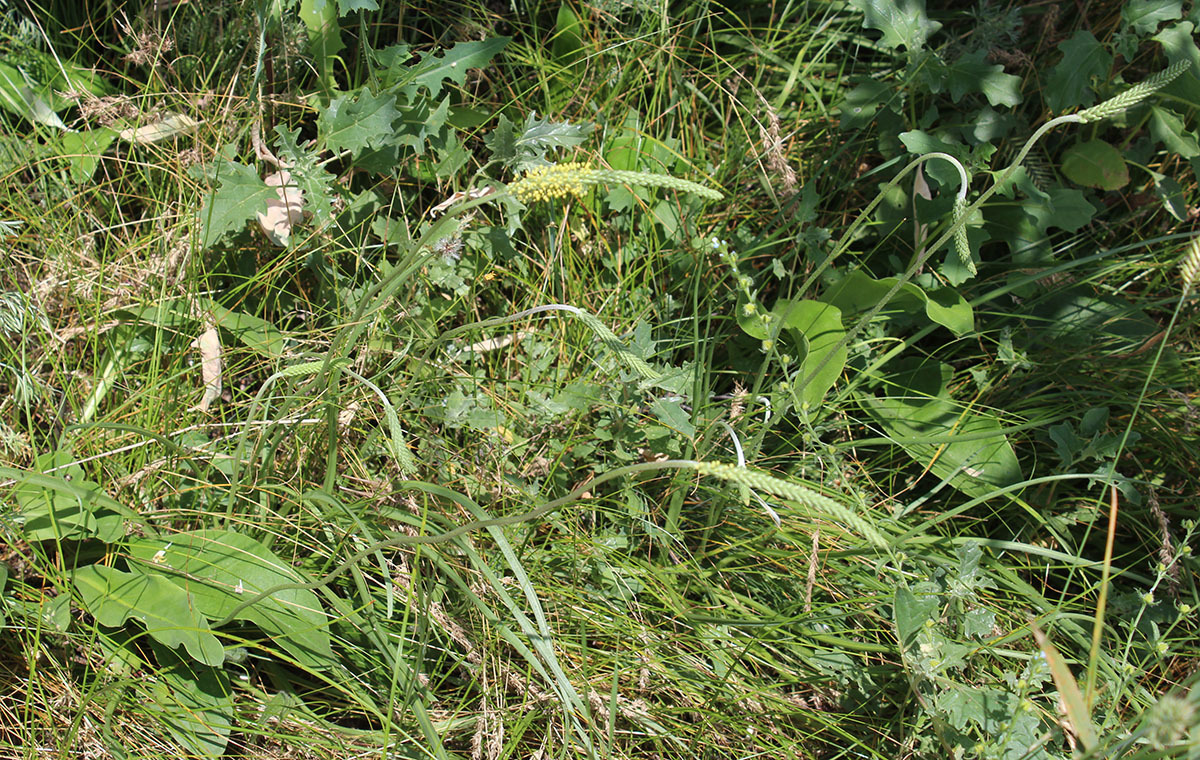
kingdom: Plantae
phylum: Tracheophyta
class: Magnoliopsida
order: Lamiales
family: Plantaginaceae
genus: Plantago
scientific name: Plantago salsa
